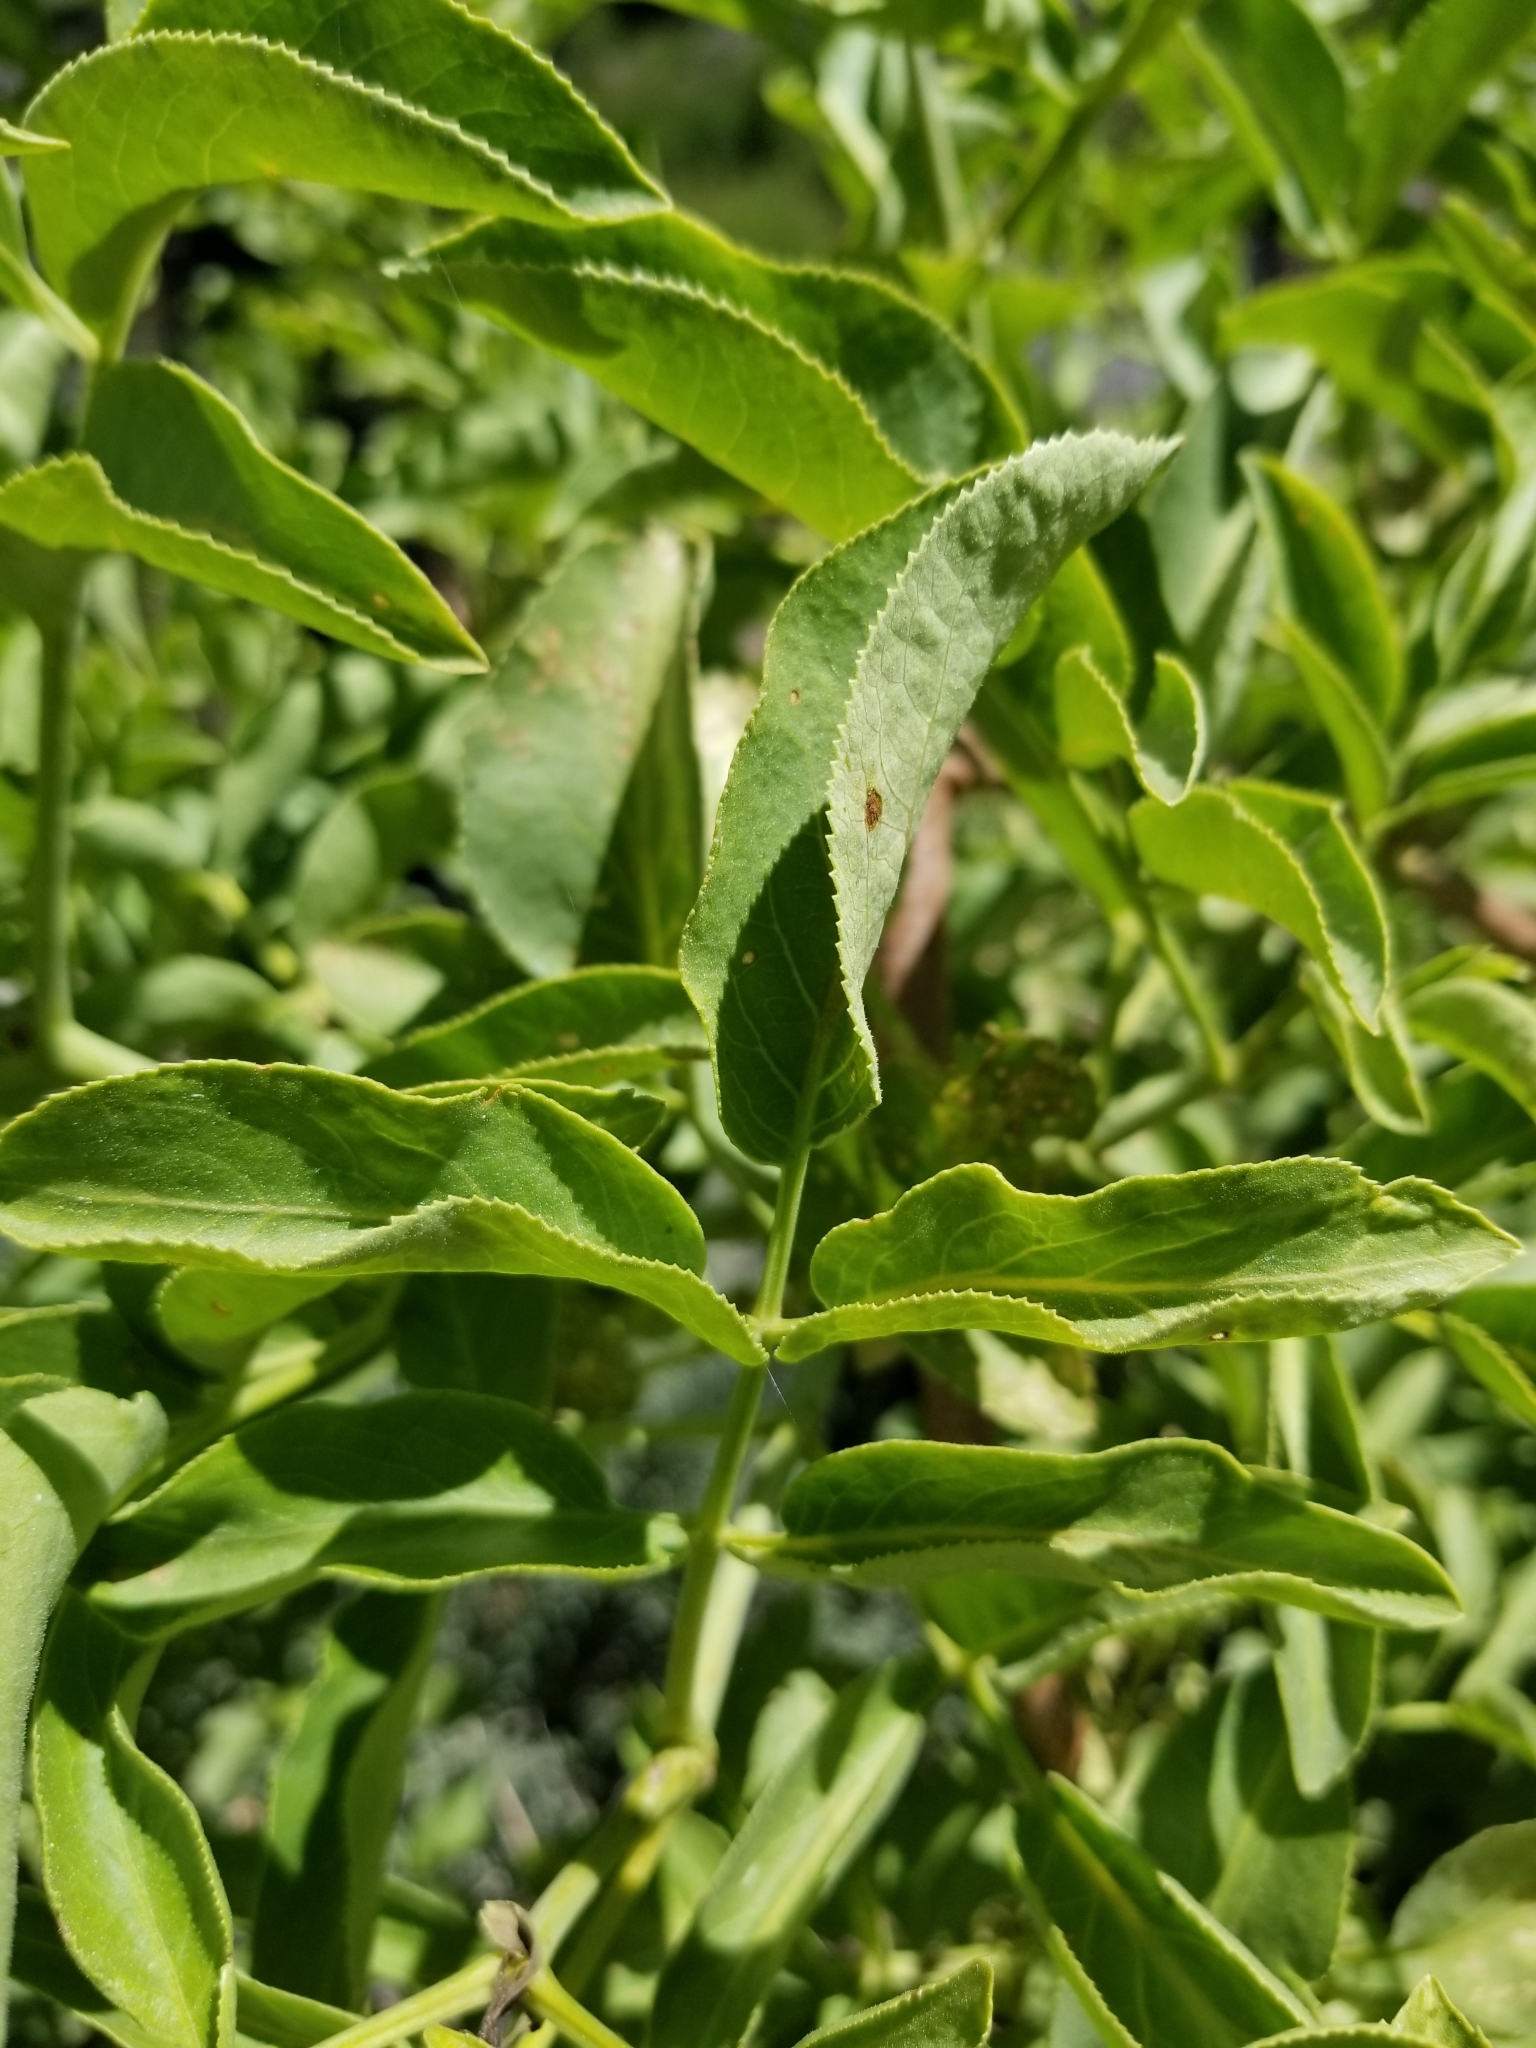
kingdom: Plantae
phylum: Tracheophyta
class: Magnoliopsida
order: Dipsacales
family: Viburnaceae
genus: Sambucus
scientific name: Sambucus cerulea
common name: Blue elder
